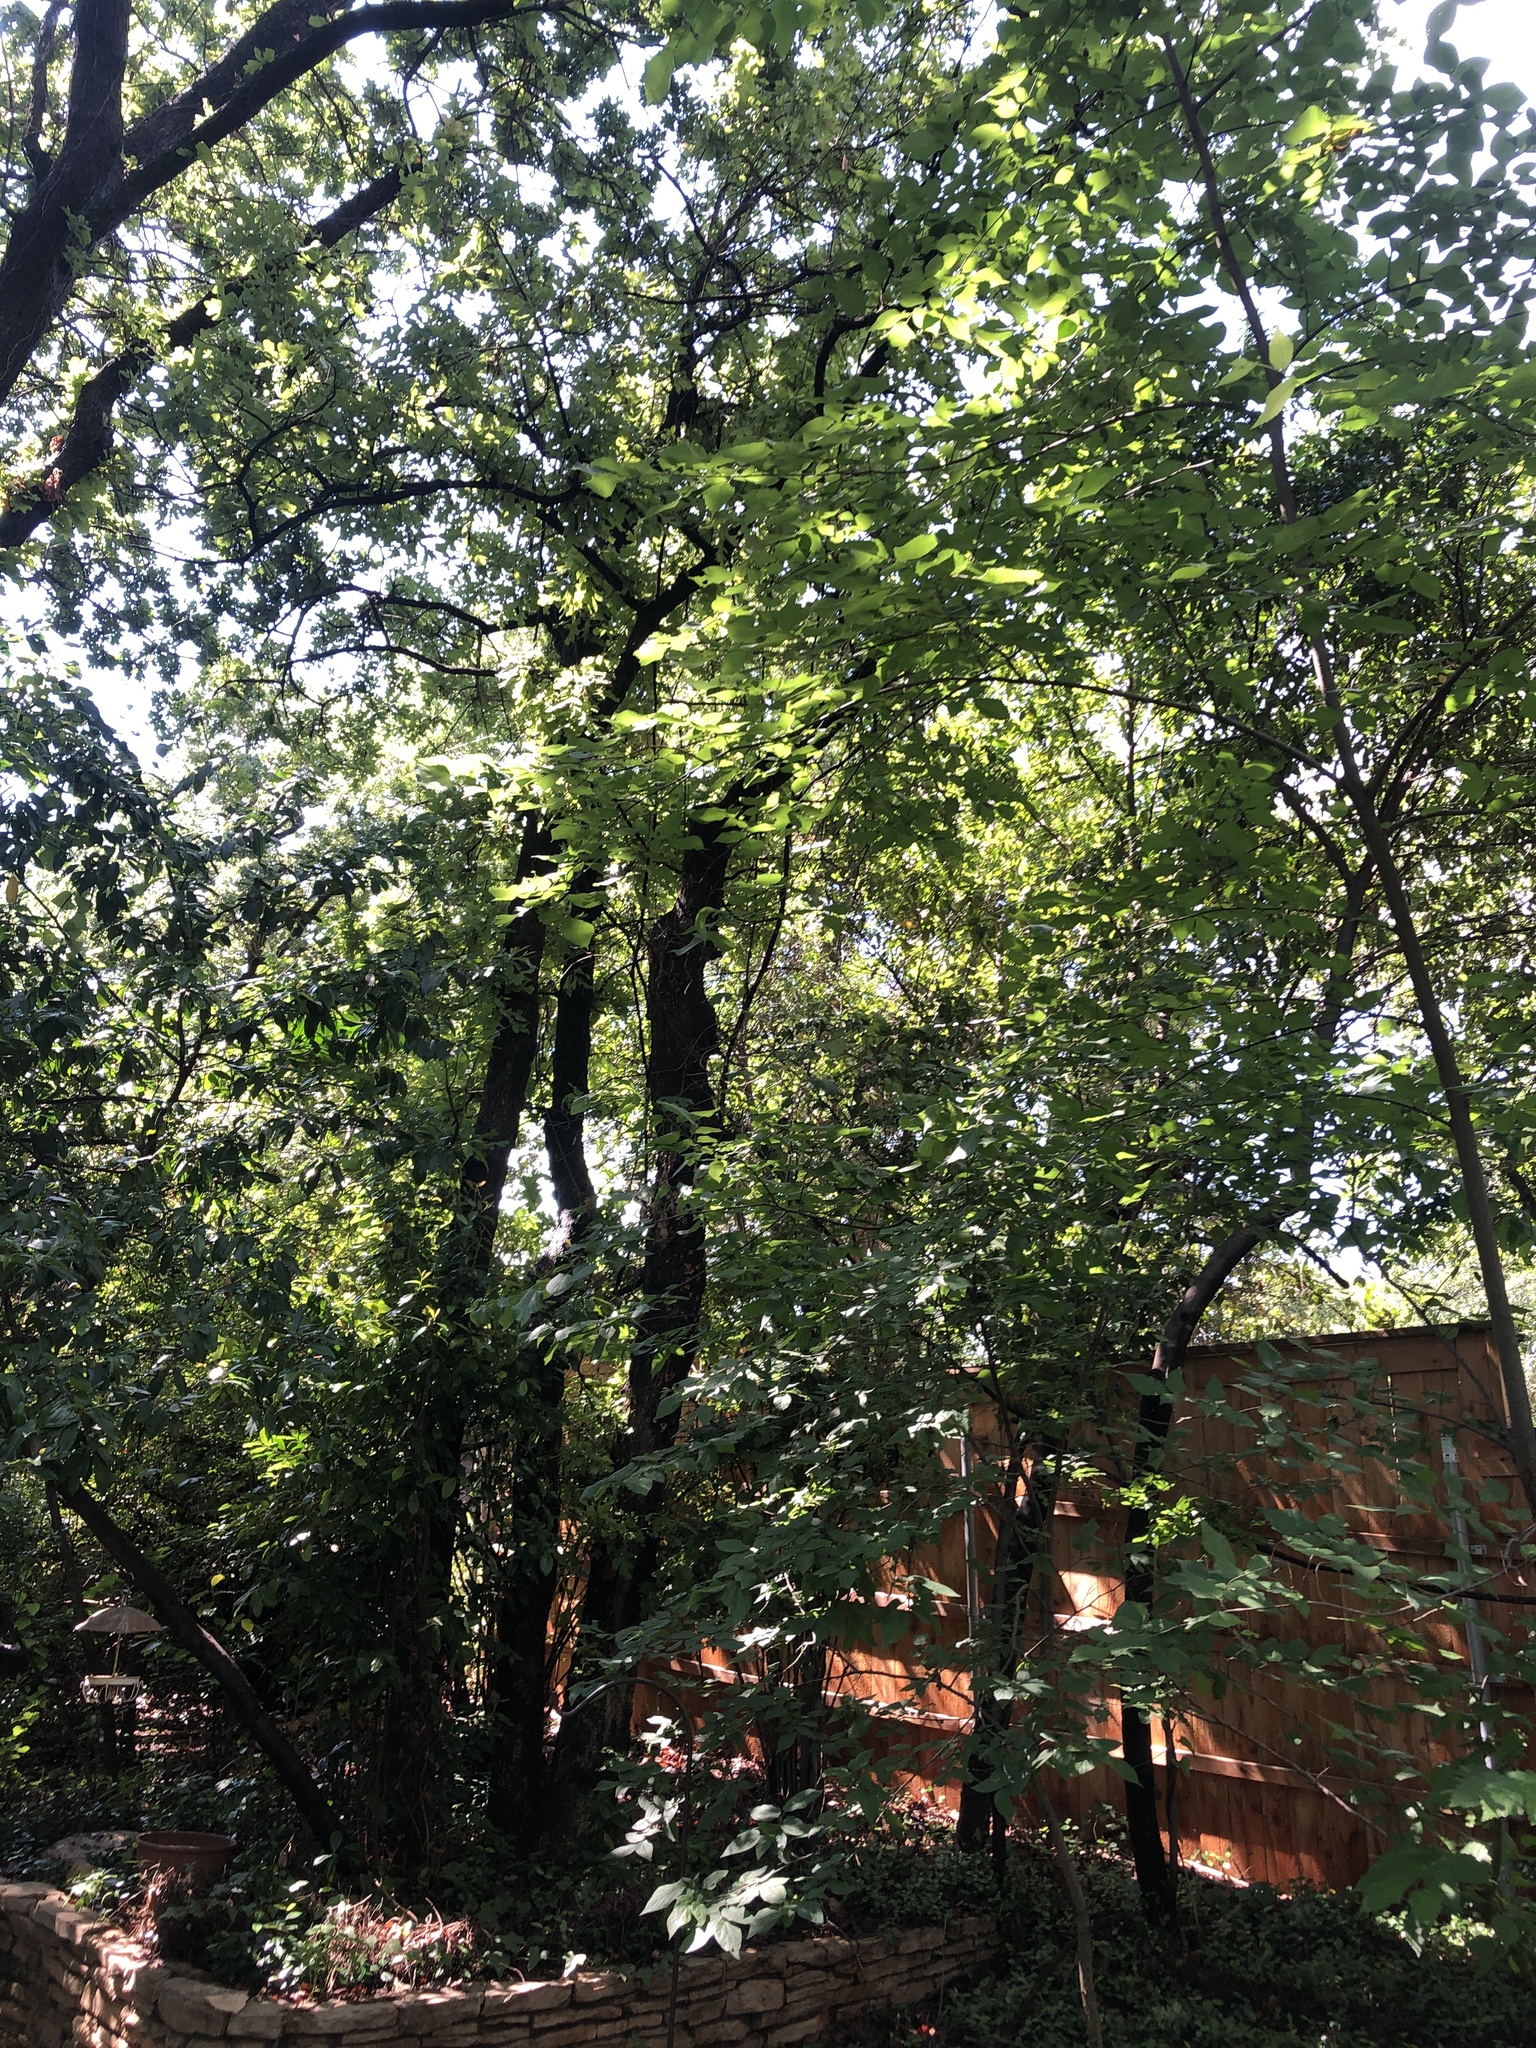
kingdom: Animalia
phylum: Chordata
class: Aves
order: Passeriformes
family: Cardinalidae
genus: Cardinalis
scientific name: Cardinalis cardinalis
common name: Northern cardinal
